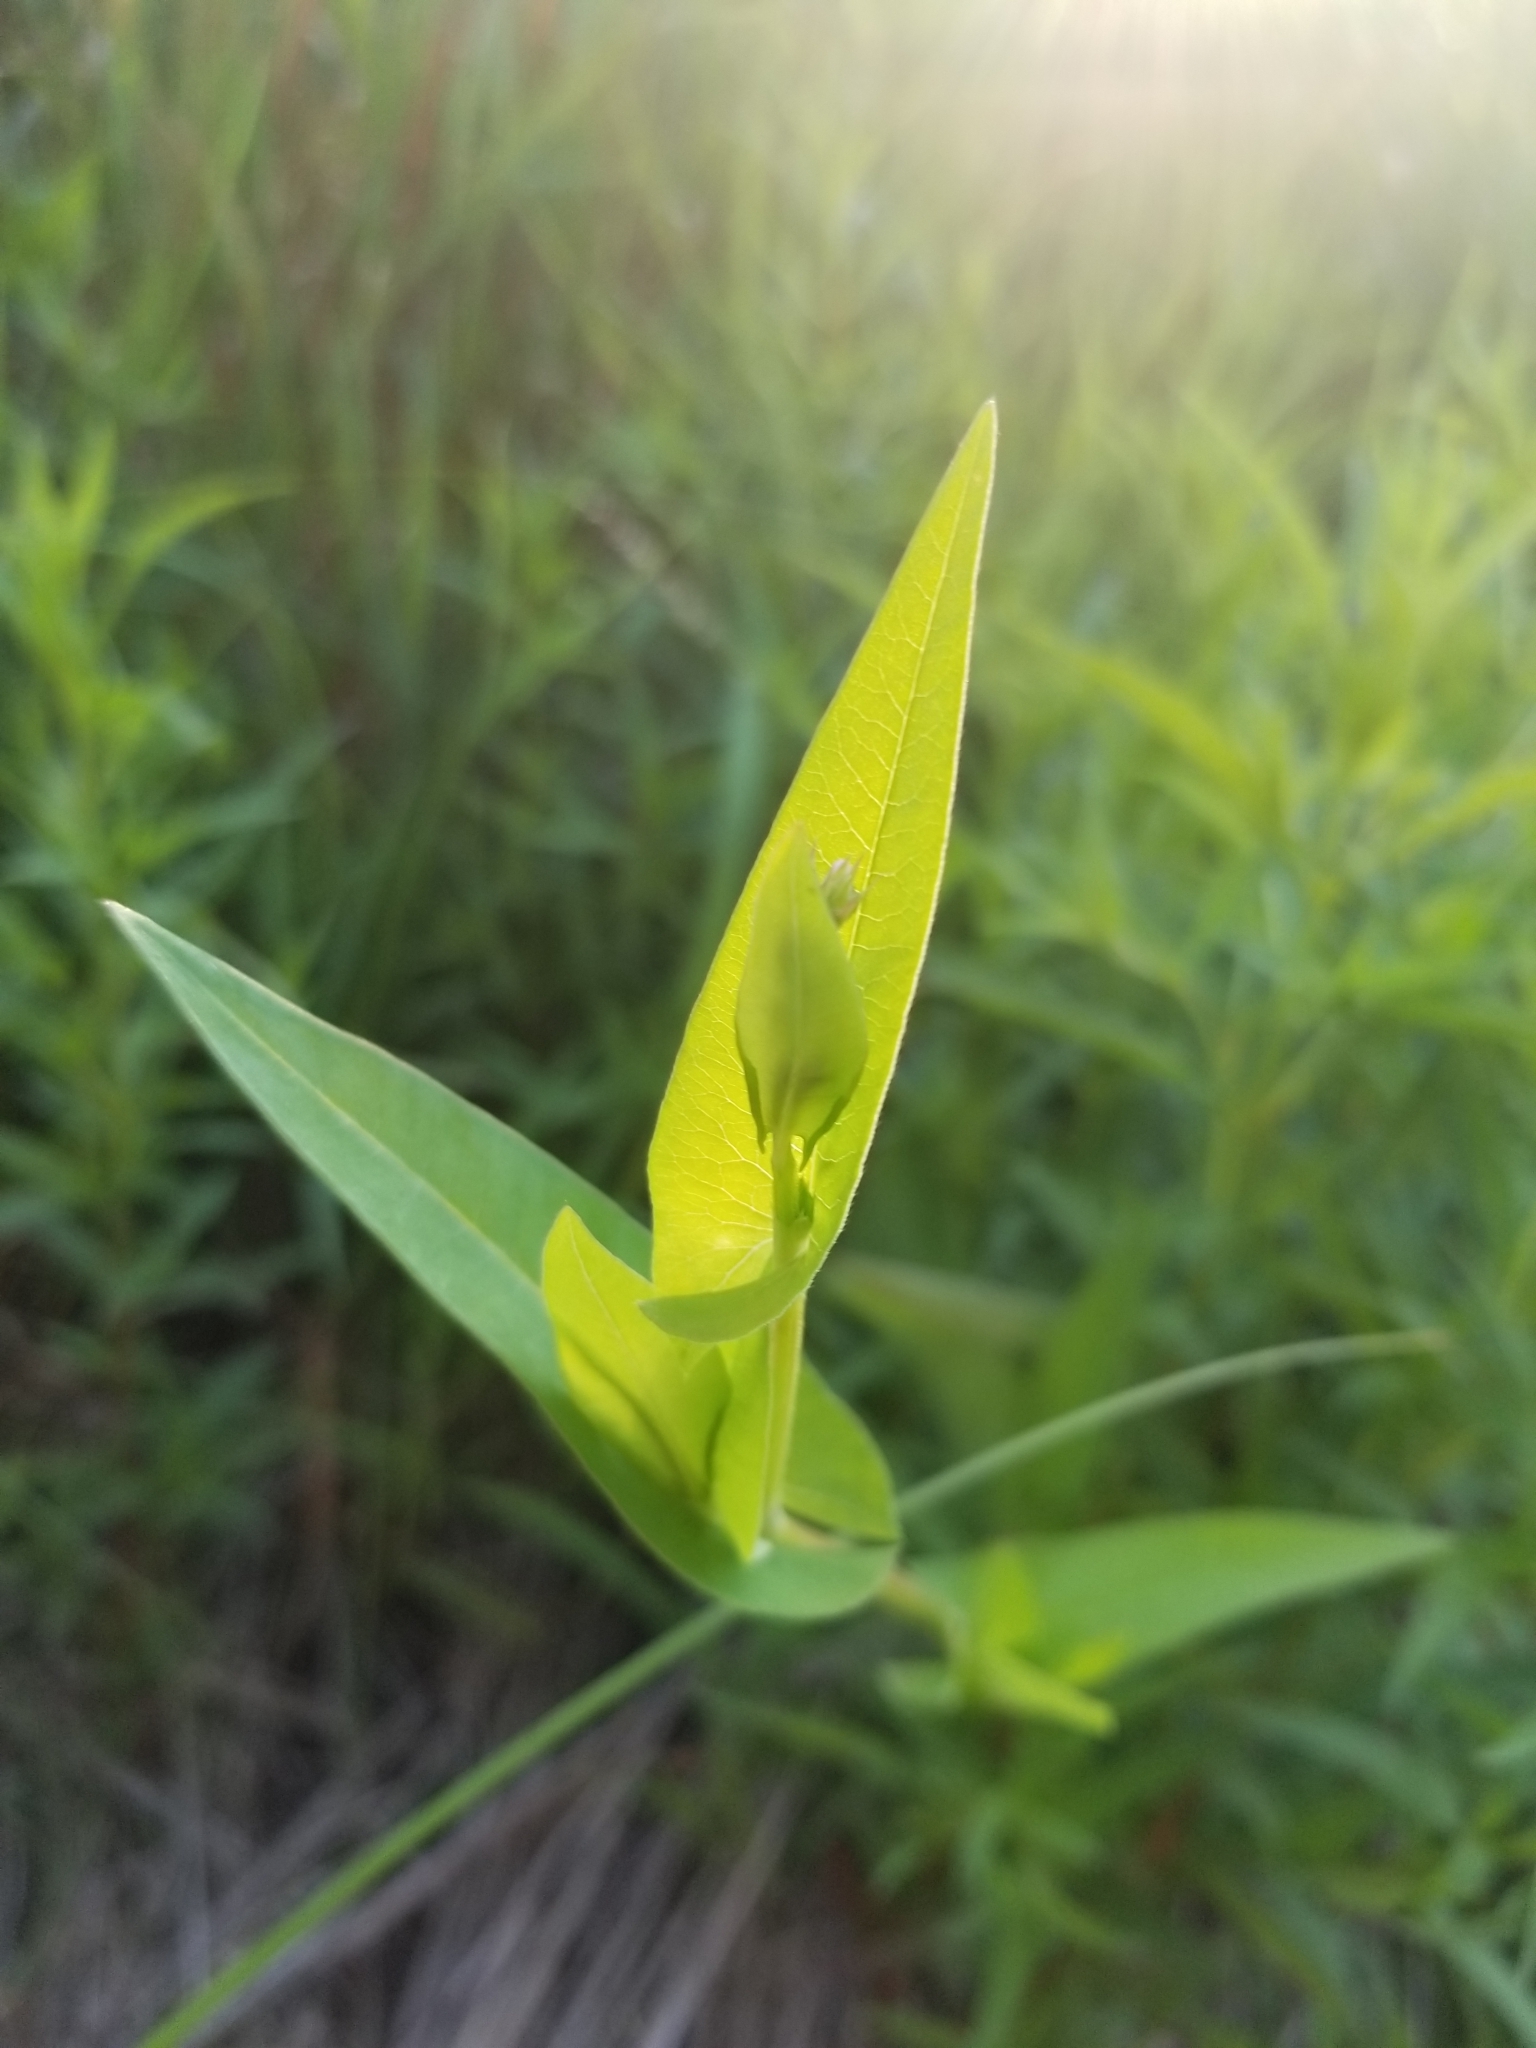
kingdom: Plantae
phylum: Tracheophyta
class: Magnoliopsida
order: Caryophyllales
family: Polygonaceae
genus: Persicaria
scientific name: Persicaria sagittata
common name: American tearthumb
